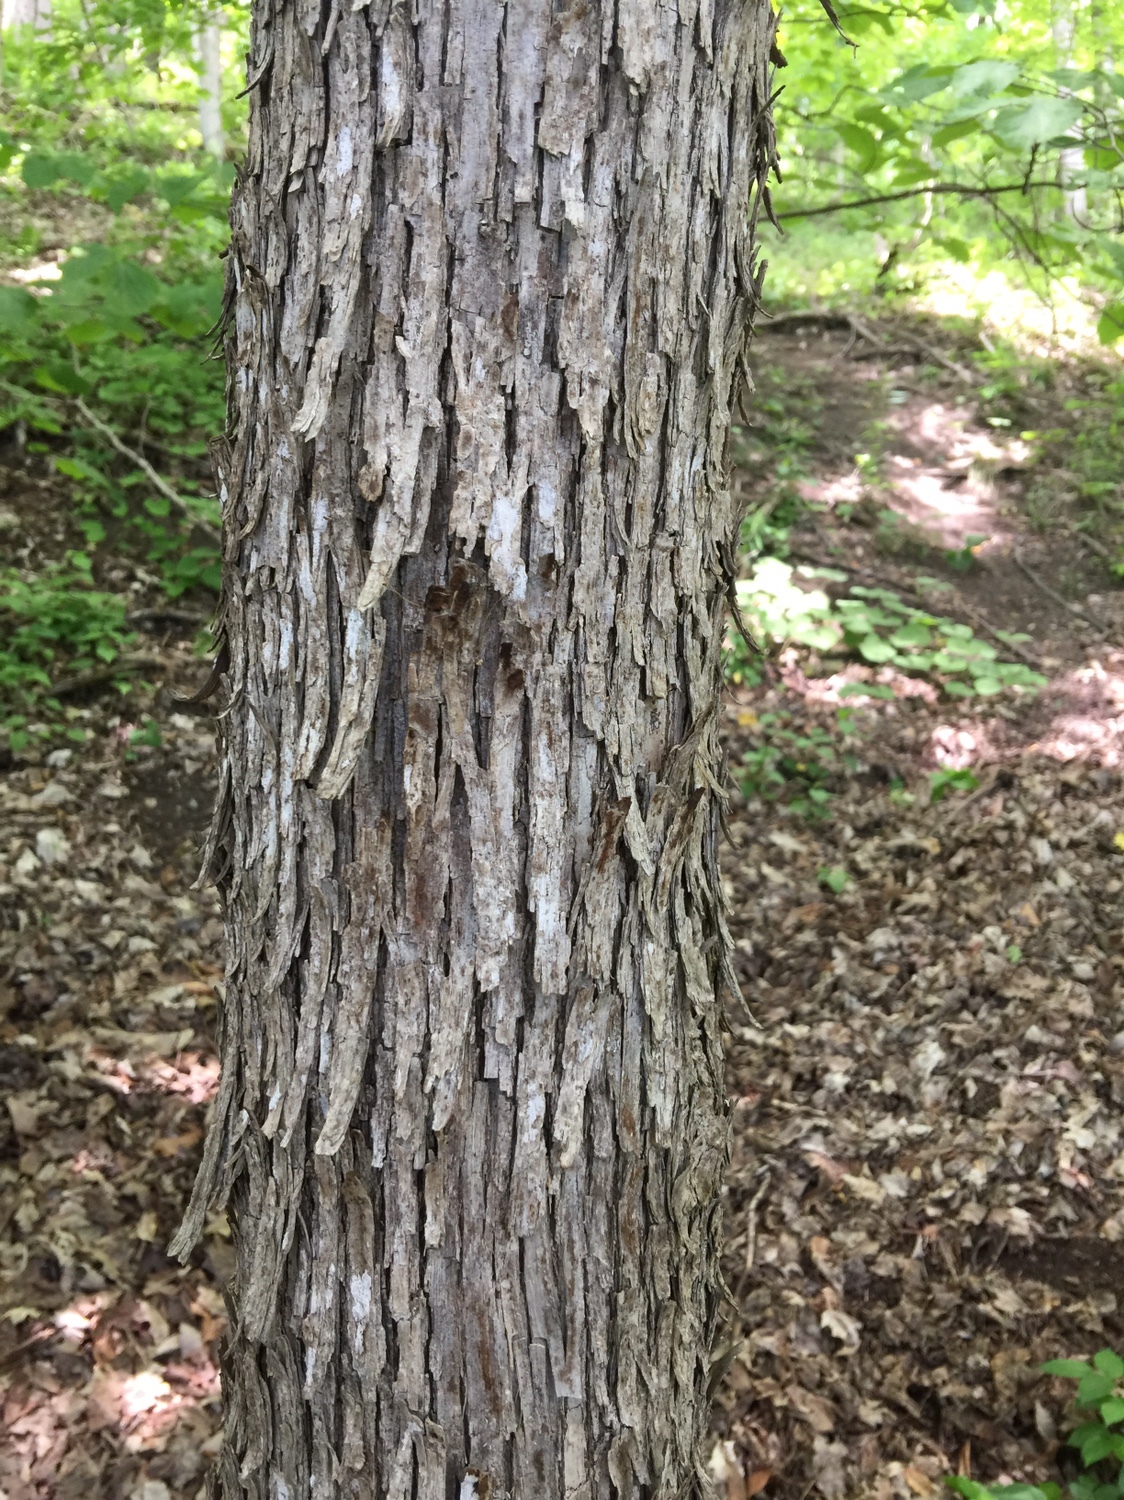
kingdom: Plantae
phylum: Tracheophyta
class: Magnoliopsida
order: Fagales
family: Betulaceae
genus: Ostrya
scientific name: Ostrya virginiana
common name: Ironwood
